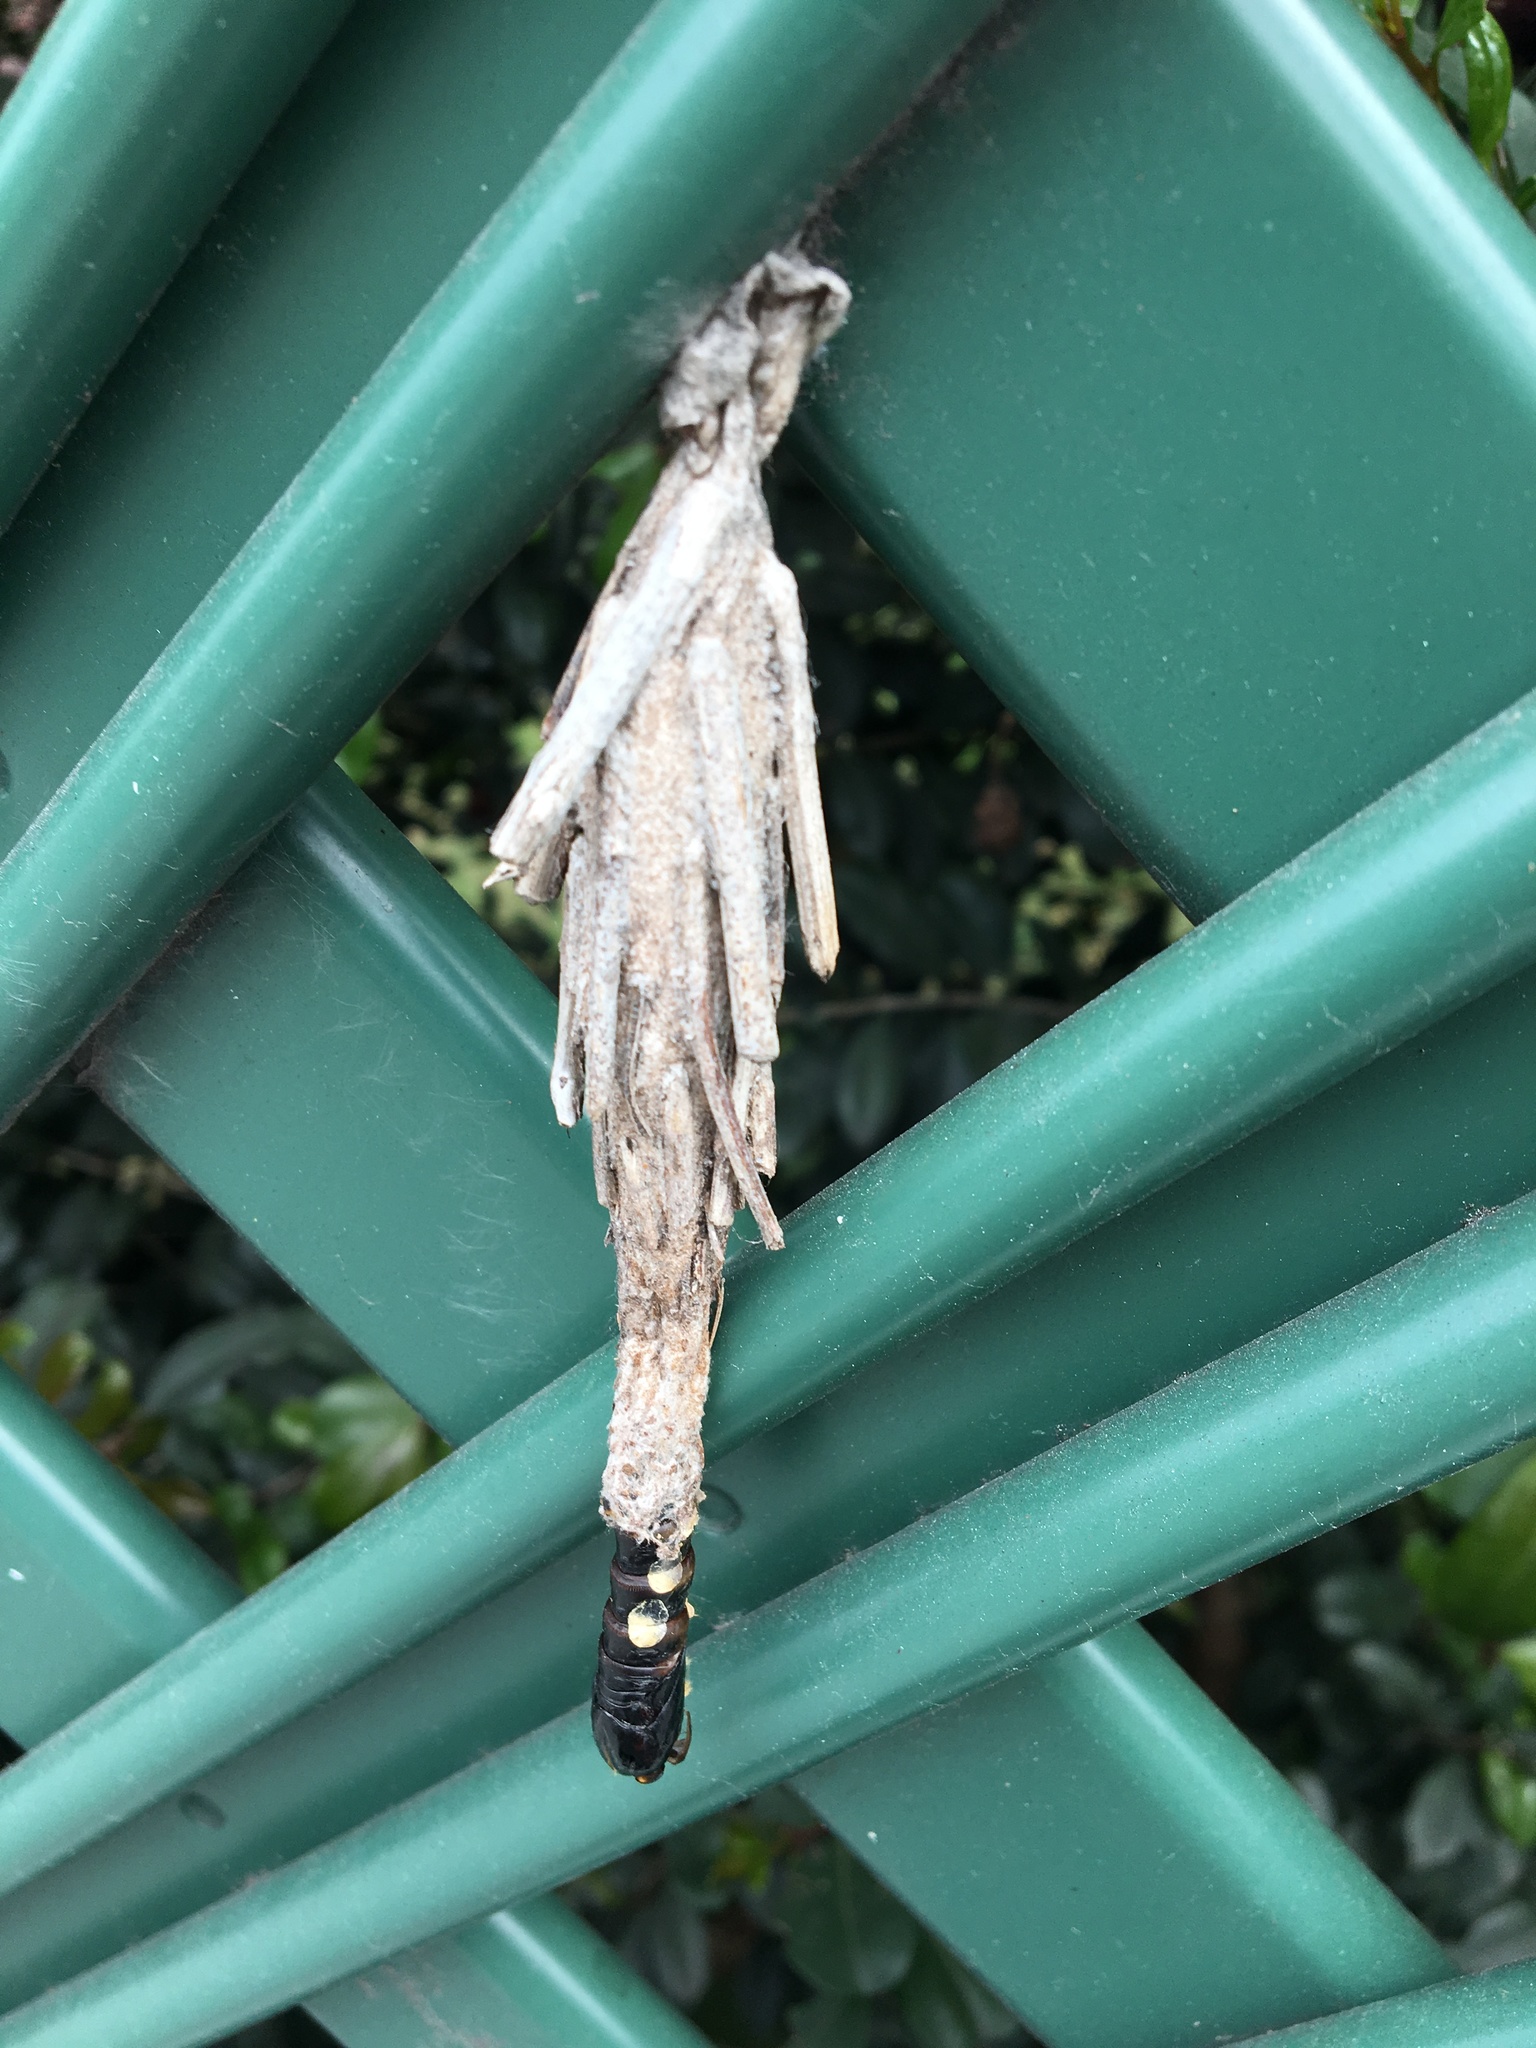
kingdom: Animalia
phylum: Arthropoda
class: Insecta
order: Lepidoptera
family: Psychidae
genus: Metura
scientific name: Metura elongatus
